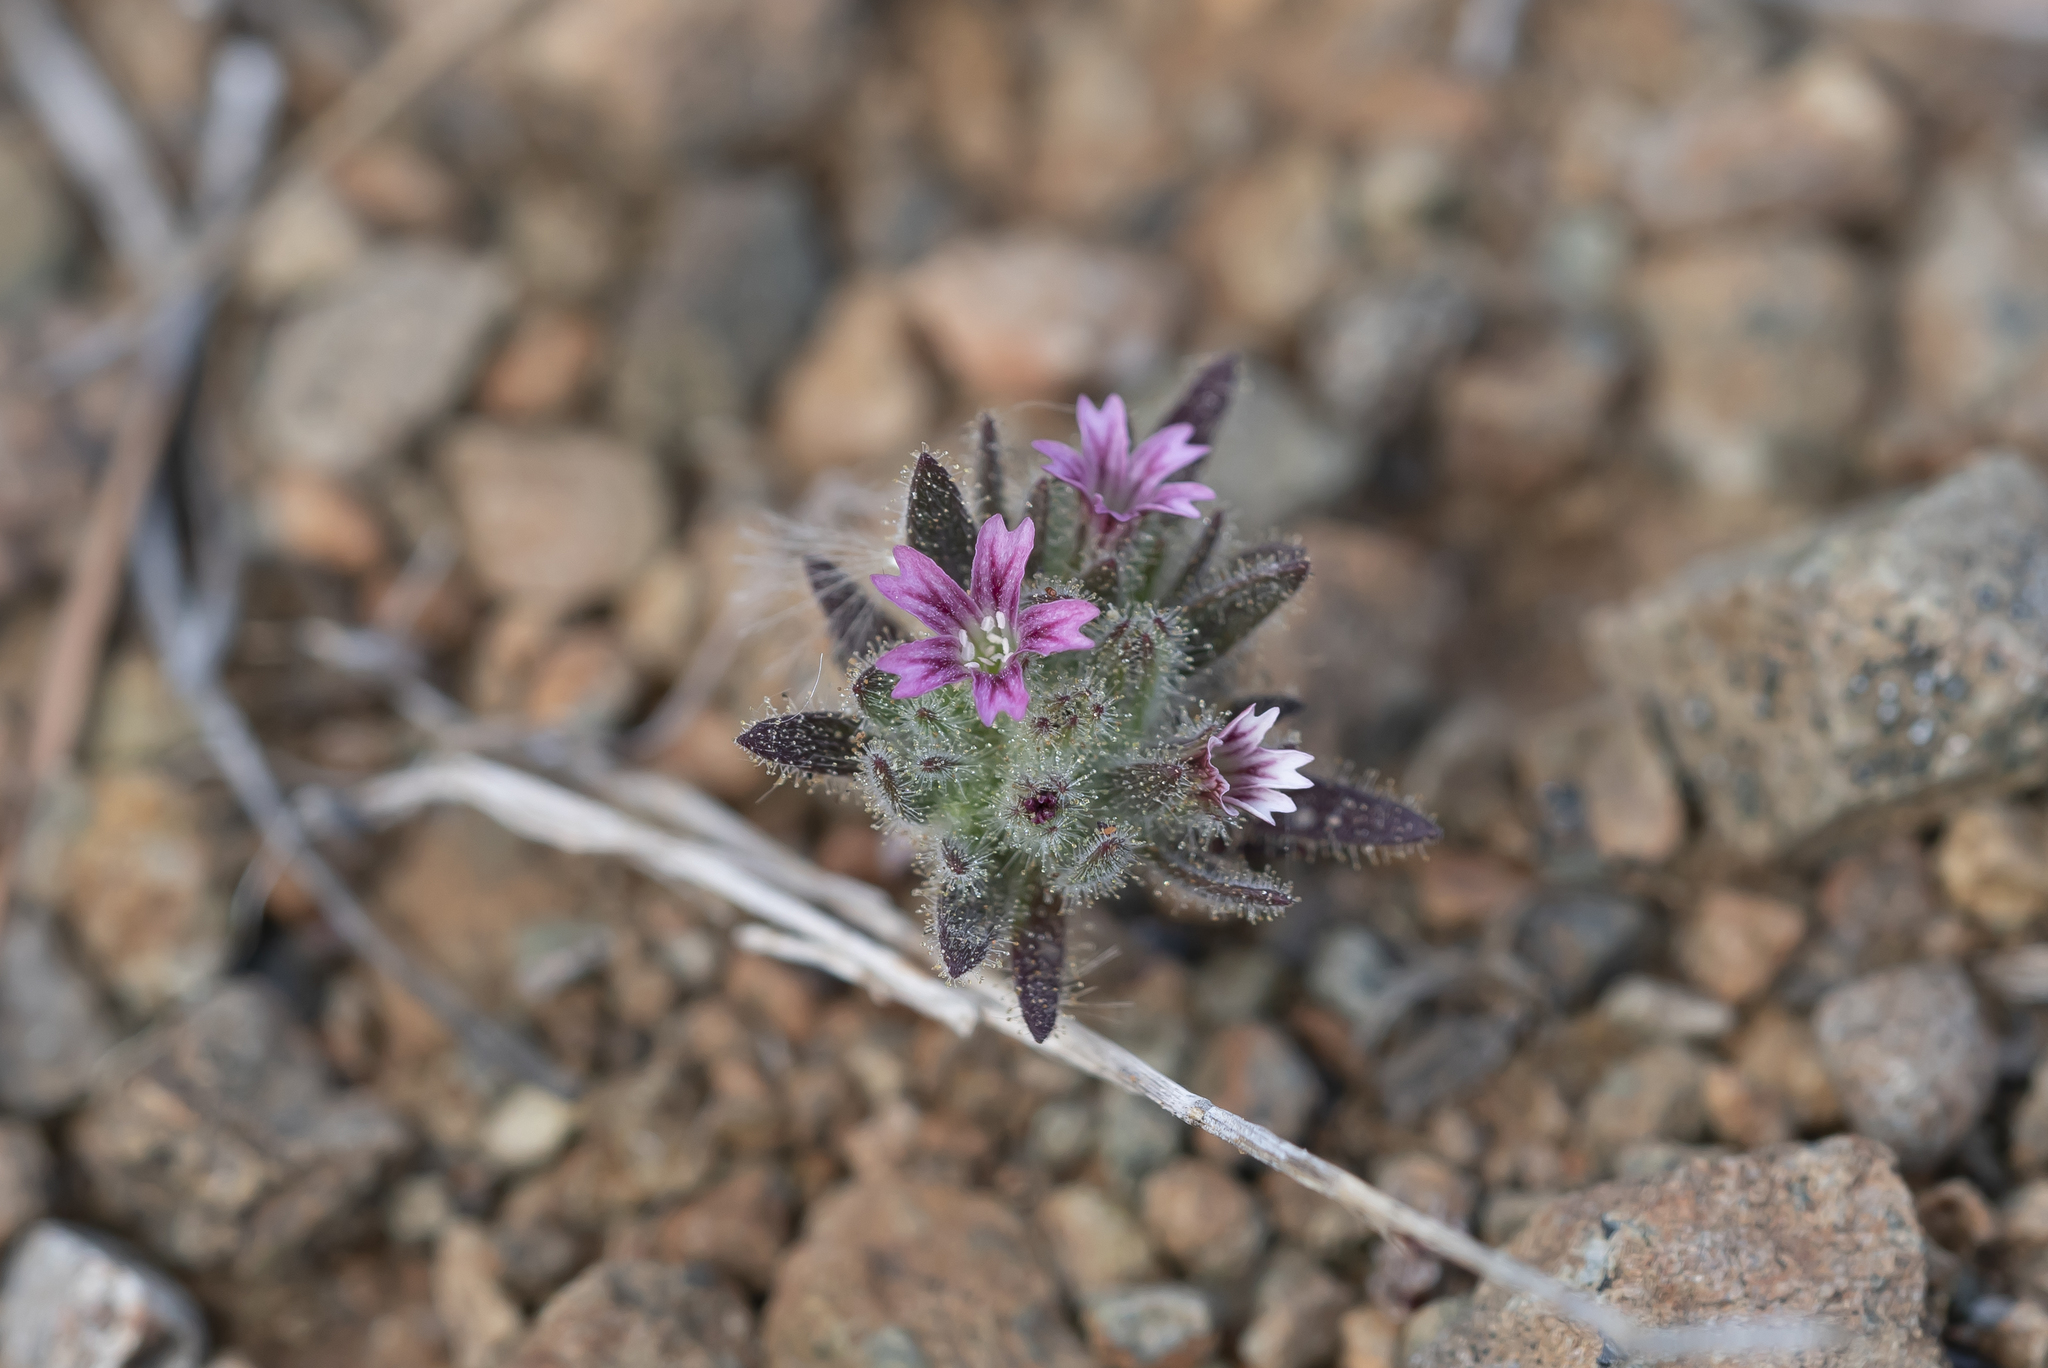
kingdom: Plantae
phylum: Tracheophyta
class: Magnoliopsida
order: Caryophyllales
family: Caryophyllaceae
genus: Bolanthus
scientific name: Bolanthus confertifolius
